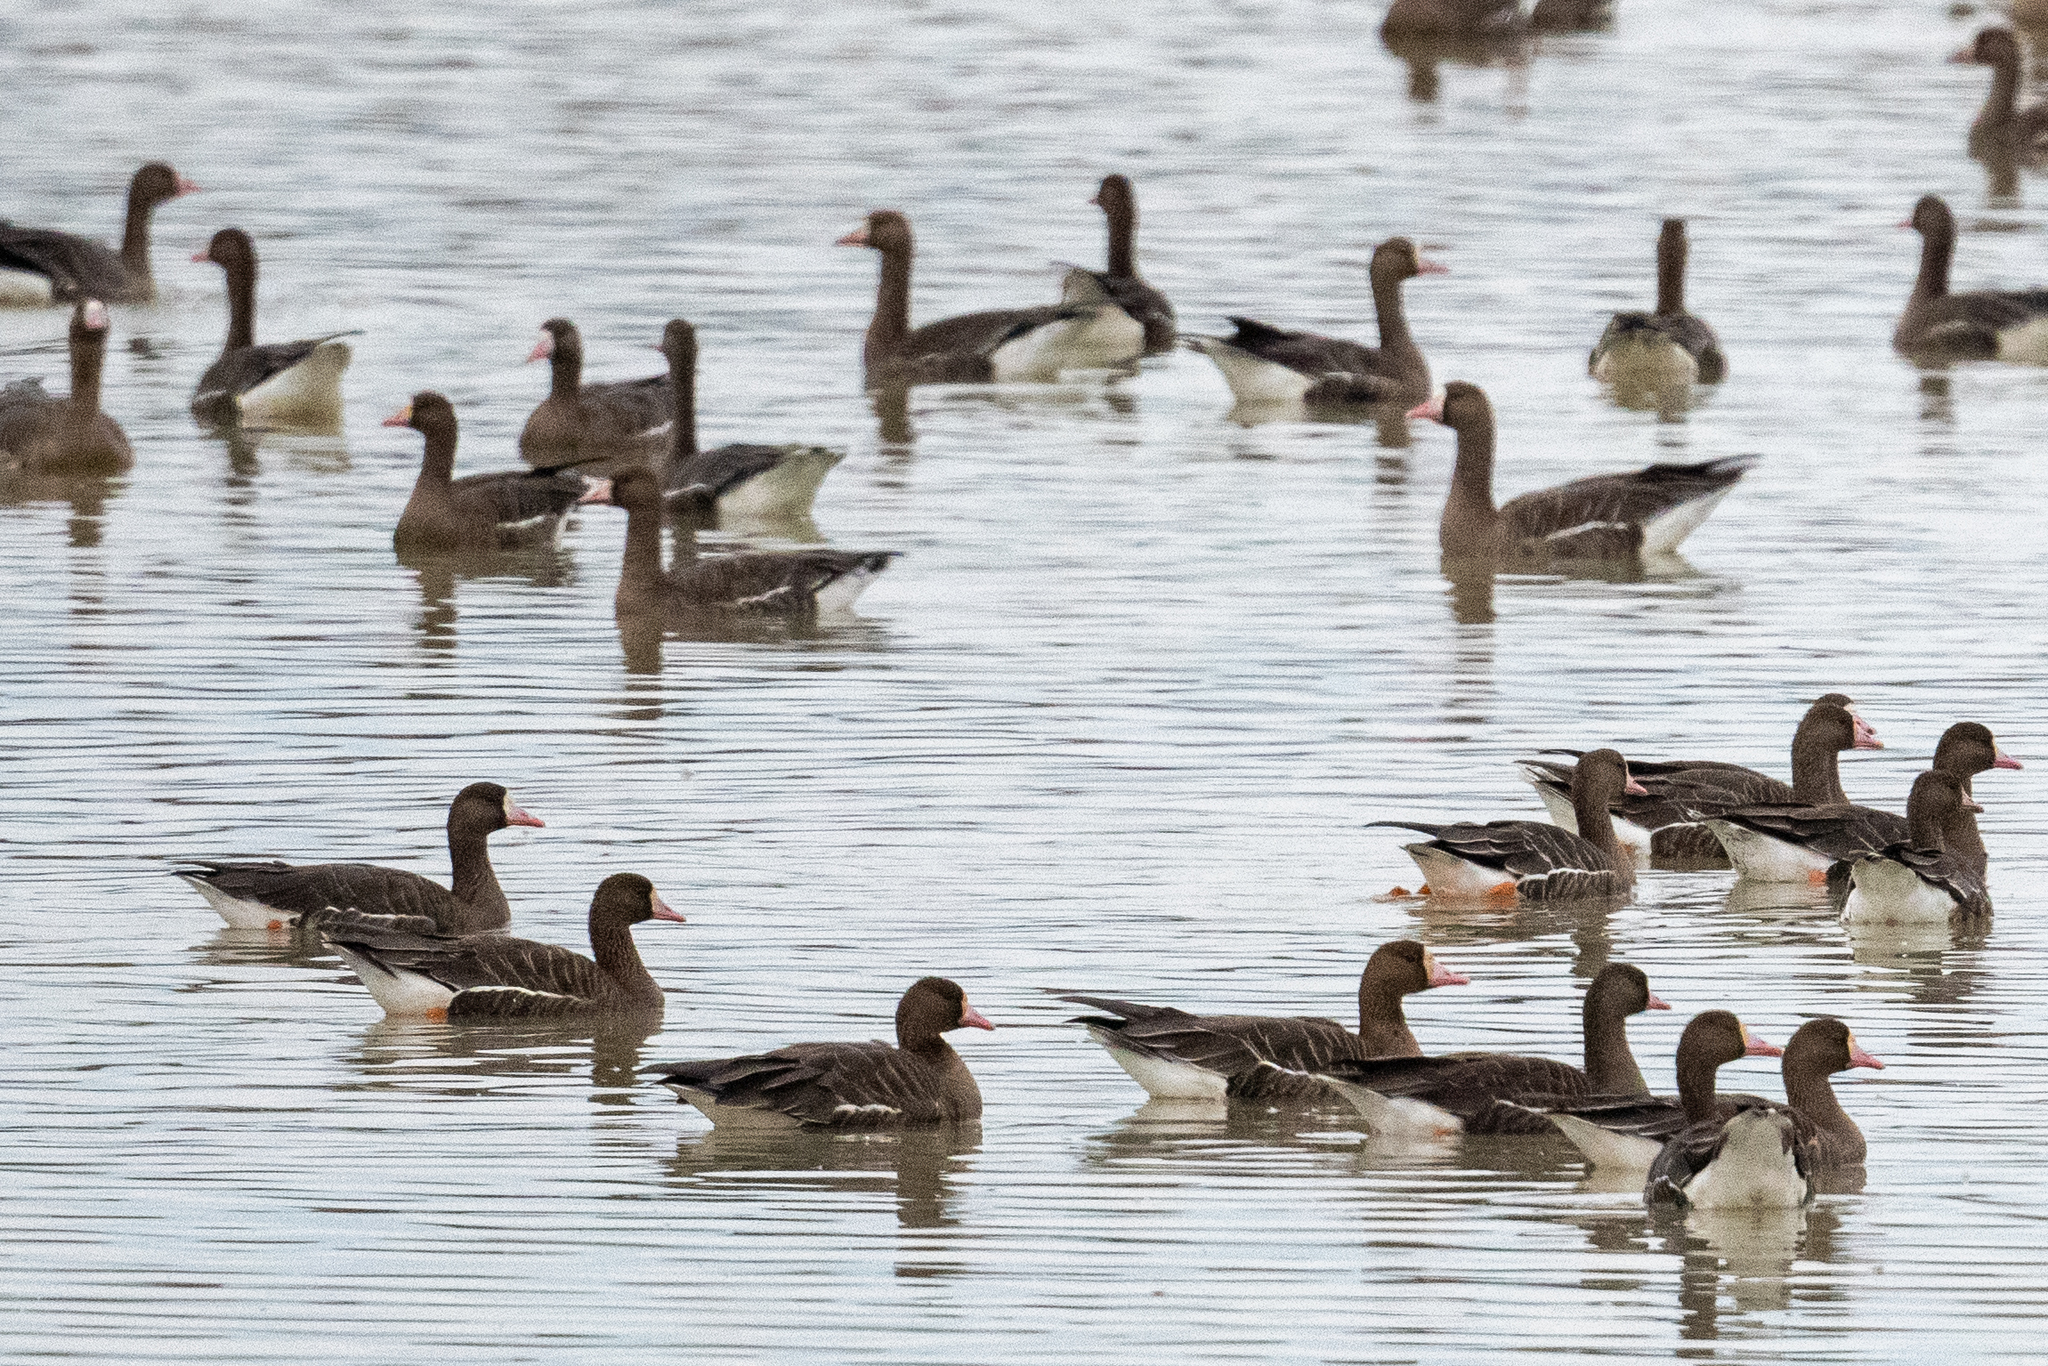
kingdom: Animalia
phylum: Chordata
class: Aves
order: Anseriformes
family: Anatidae
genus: Anser
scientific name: Anser albifrons
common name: Greater white-fronted goose
